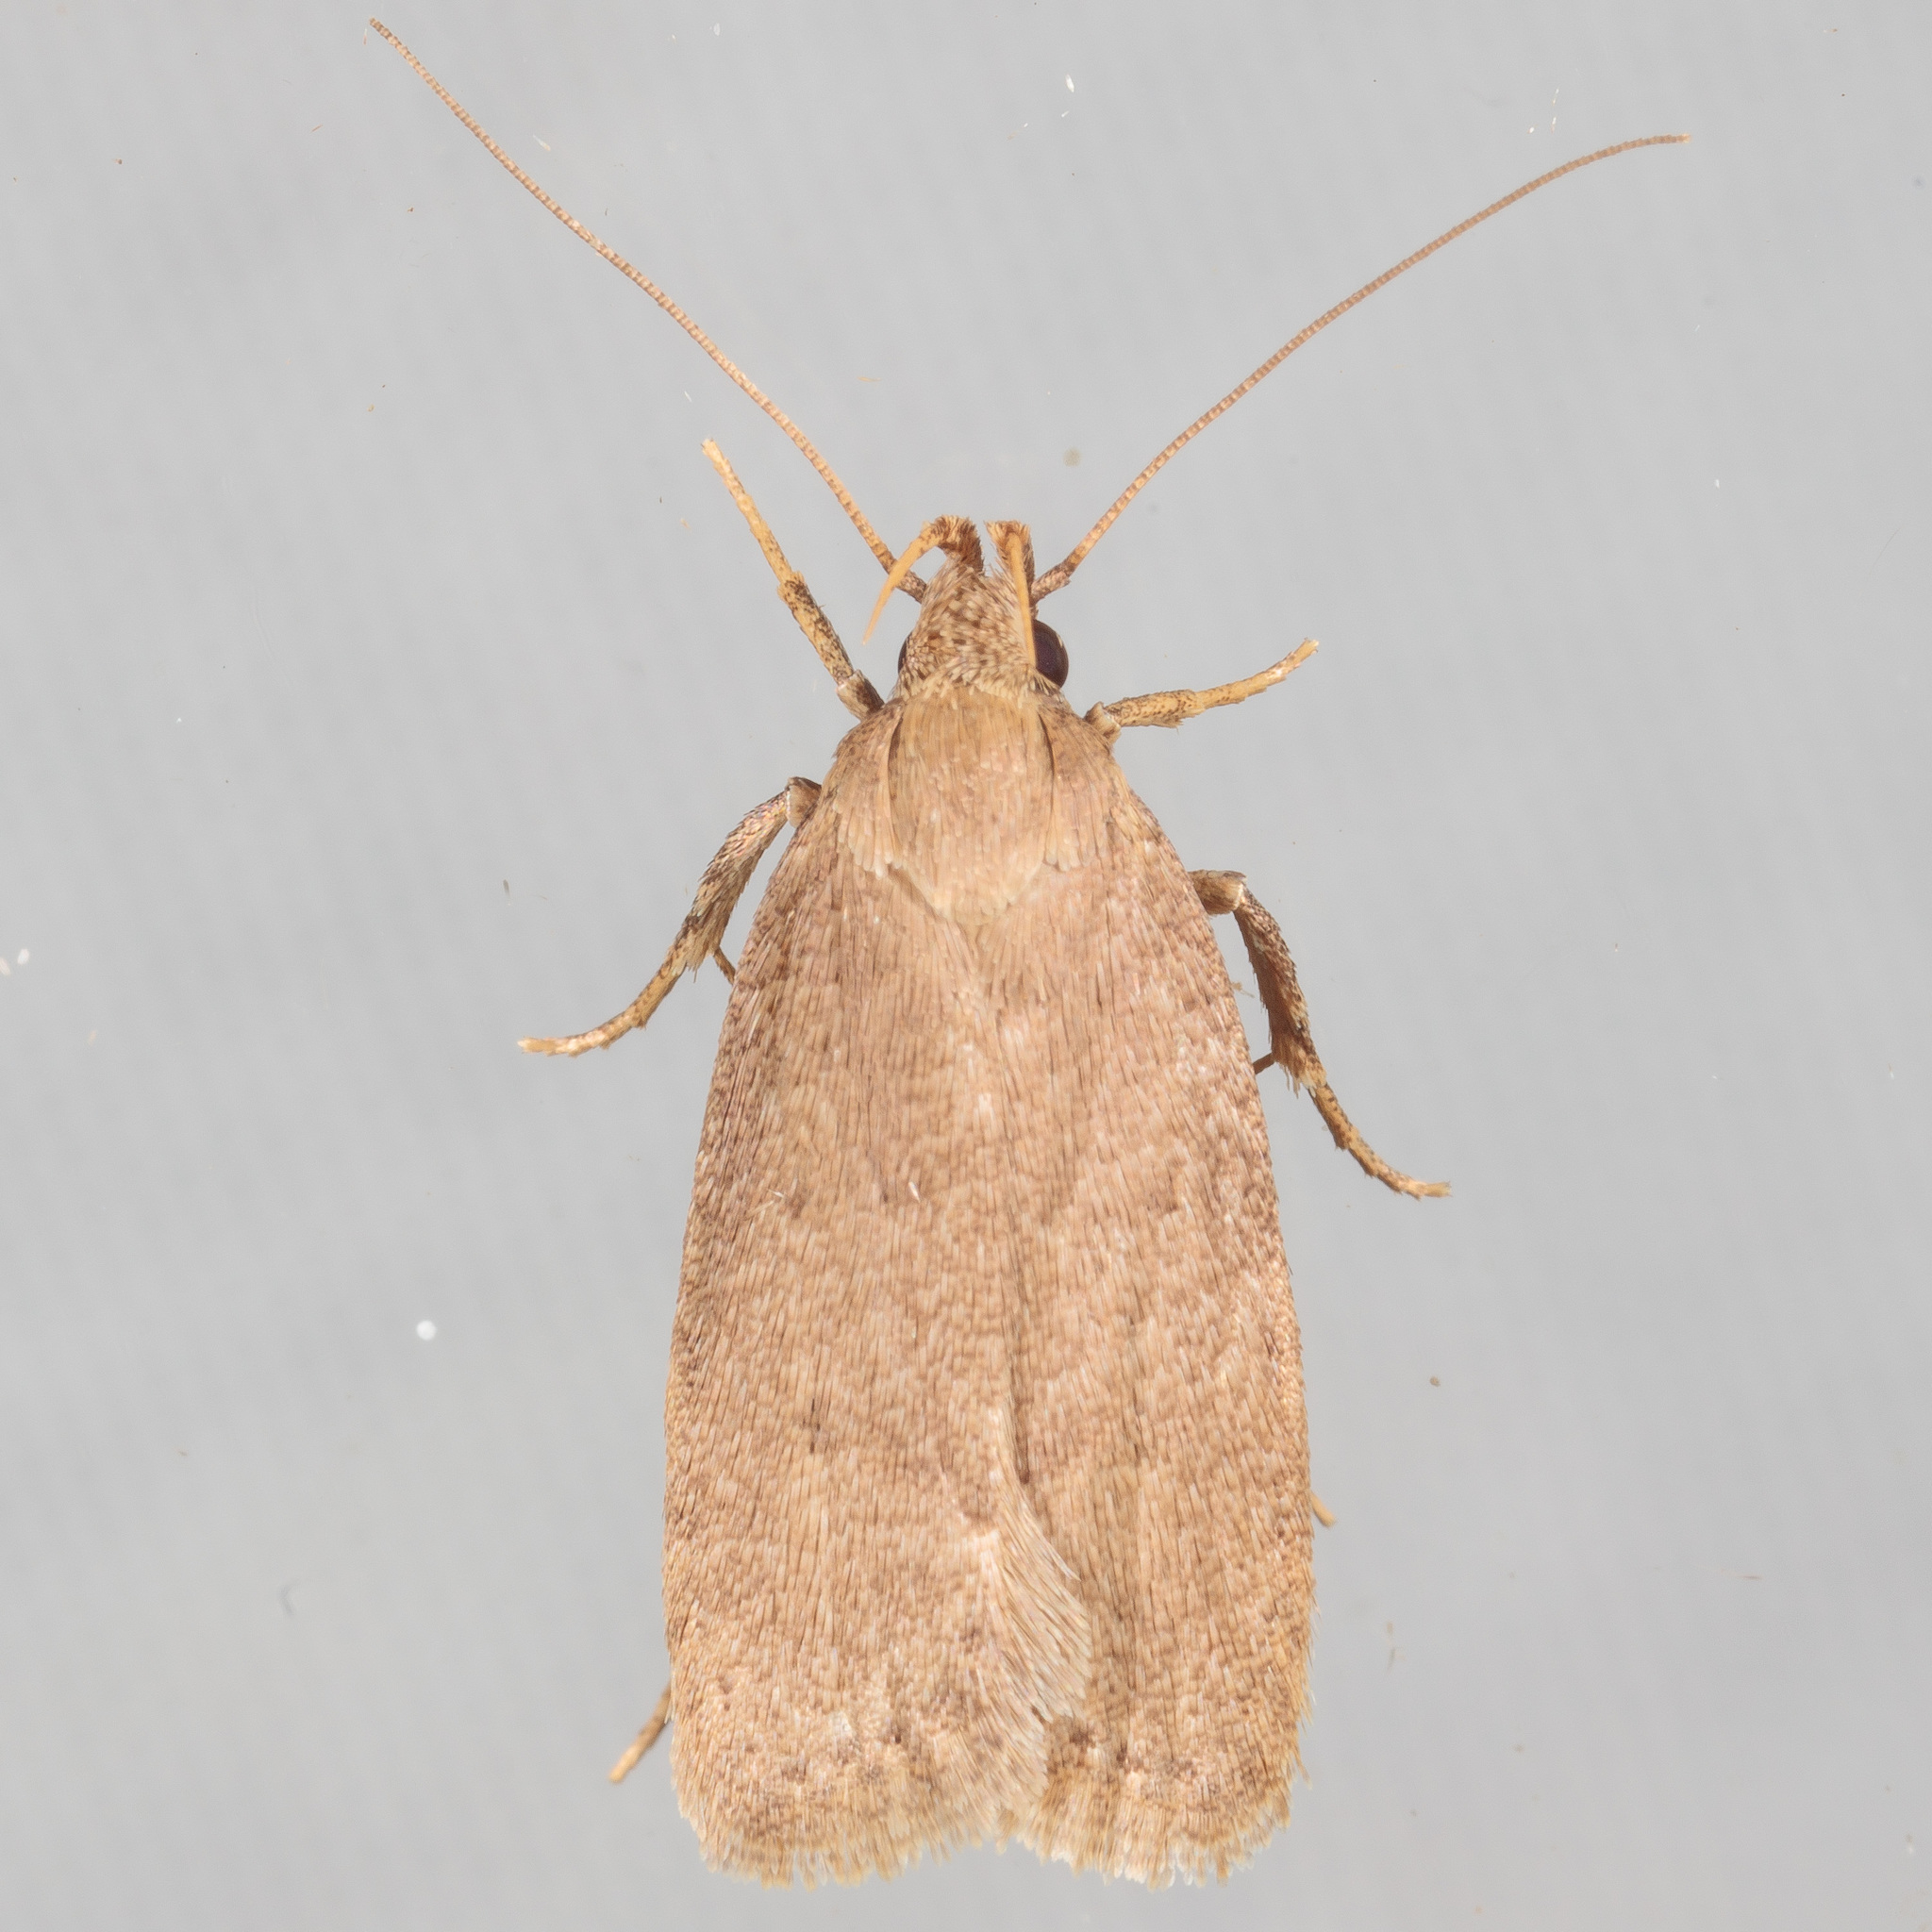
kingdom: Animalia
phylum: Arthropoda
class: Insecta
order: Lepidoptera
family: Autostichidae
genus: Autosticha
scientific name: Autosticha kyotensis
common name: Kyoto moth
